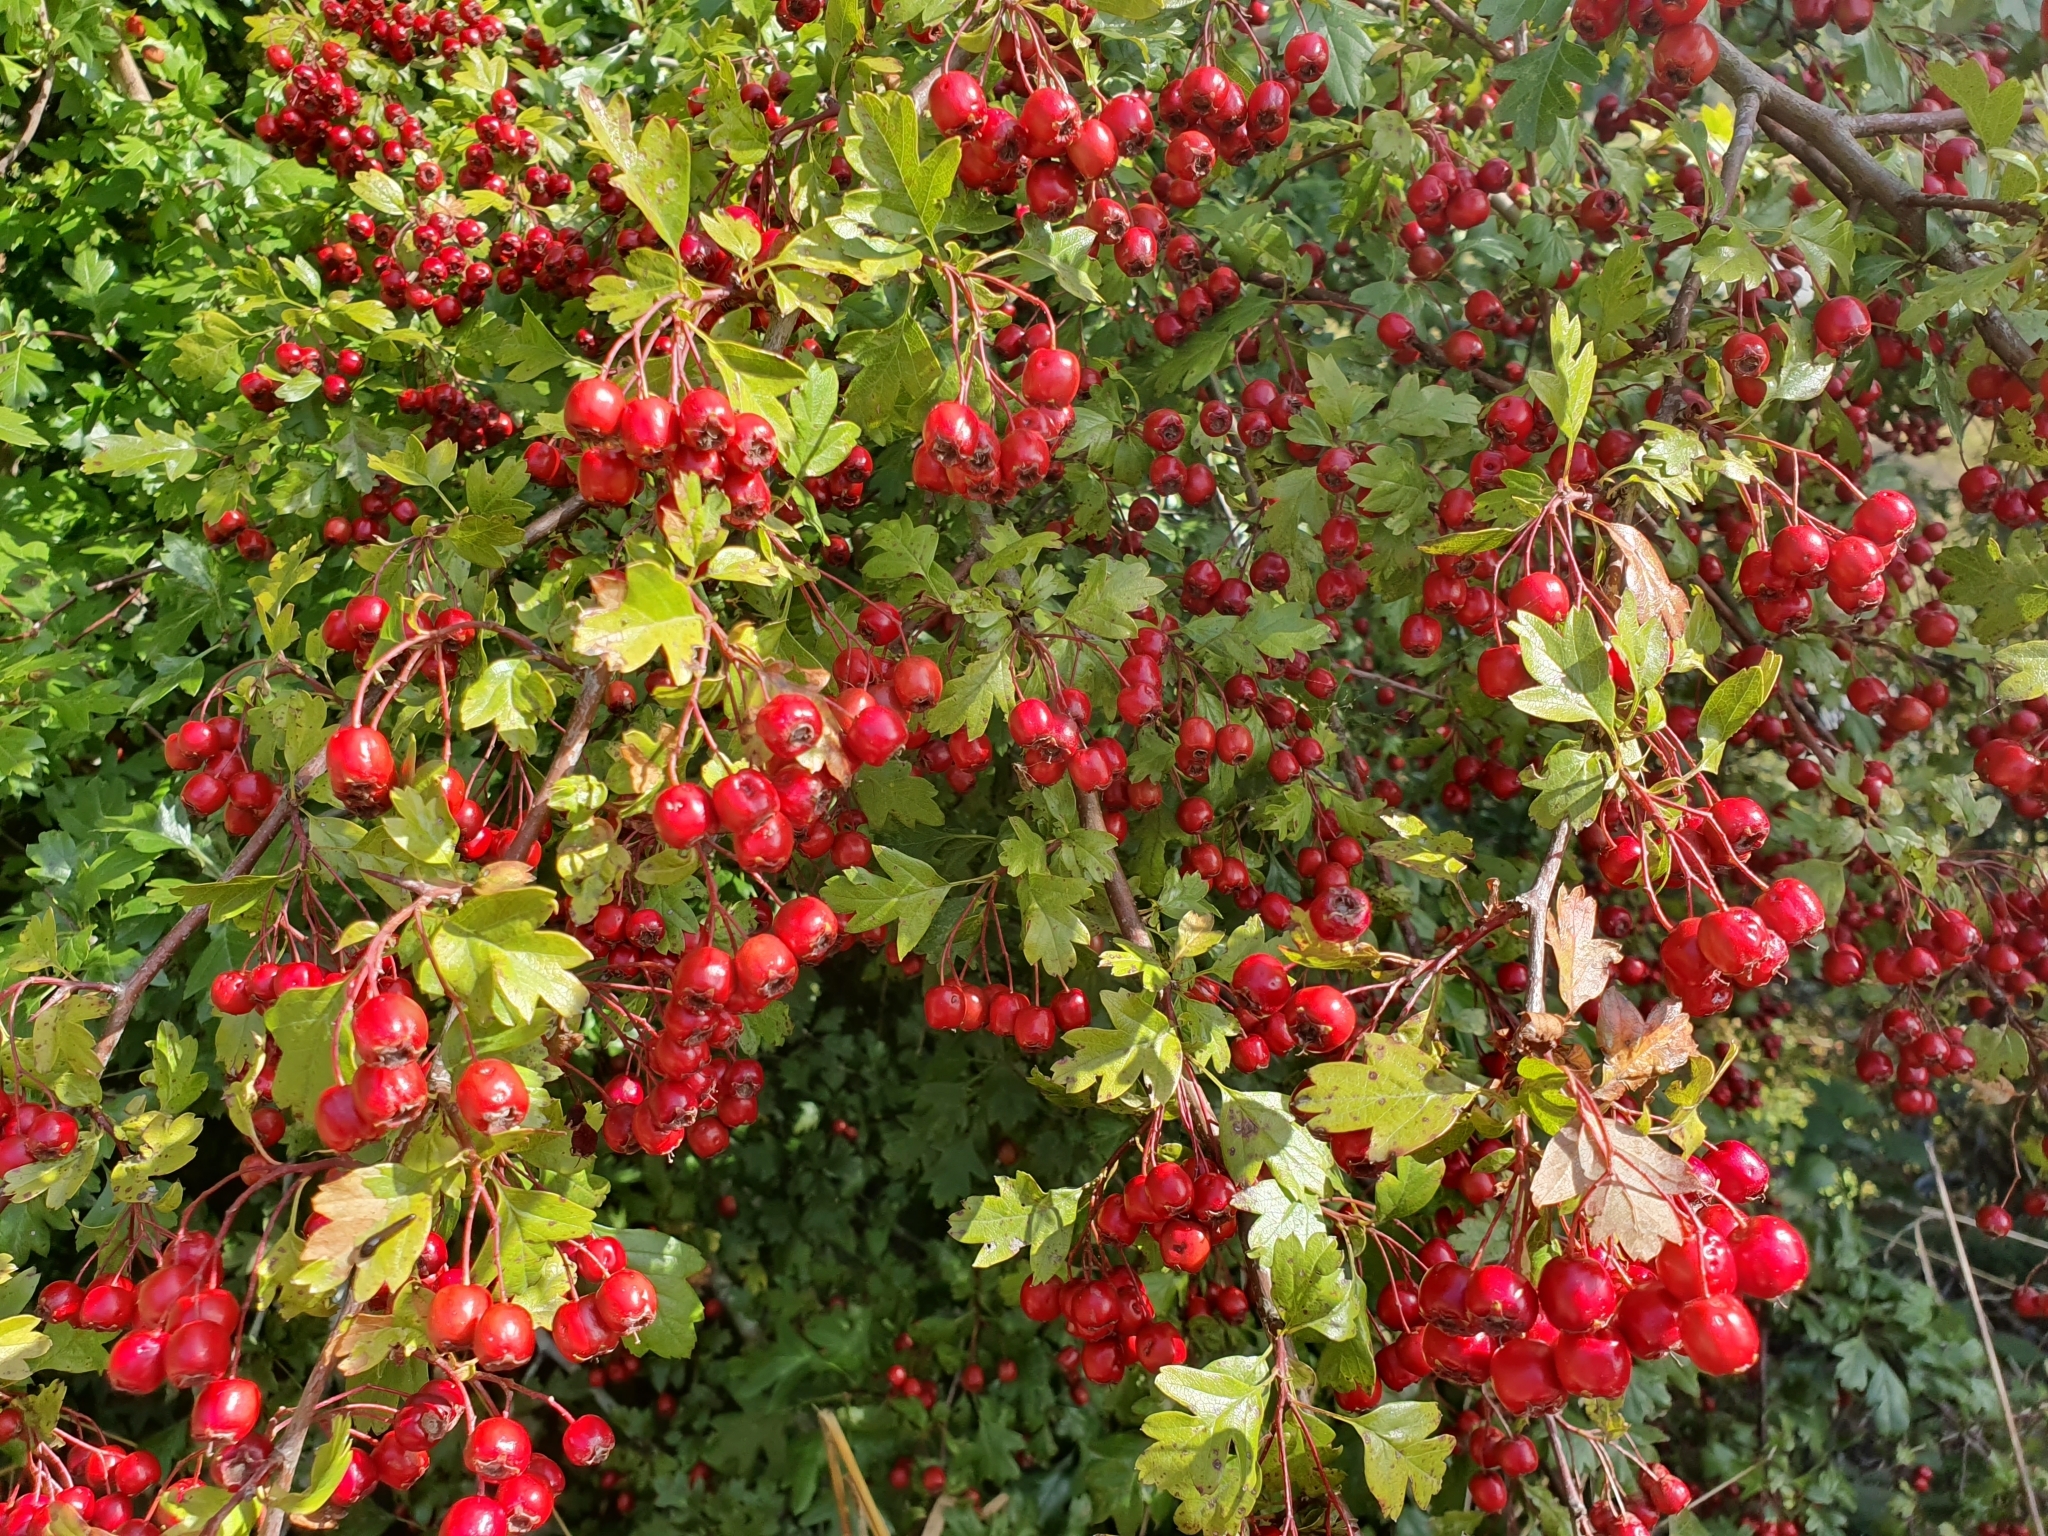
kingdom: Plantae
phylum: Tracheophyta
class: Magnoliopsida
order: Rosales
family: Rosaceae
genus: Crataegus
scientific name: Crataegus monogyna
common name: Hawthorn
